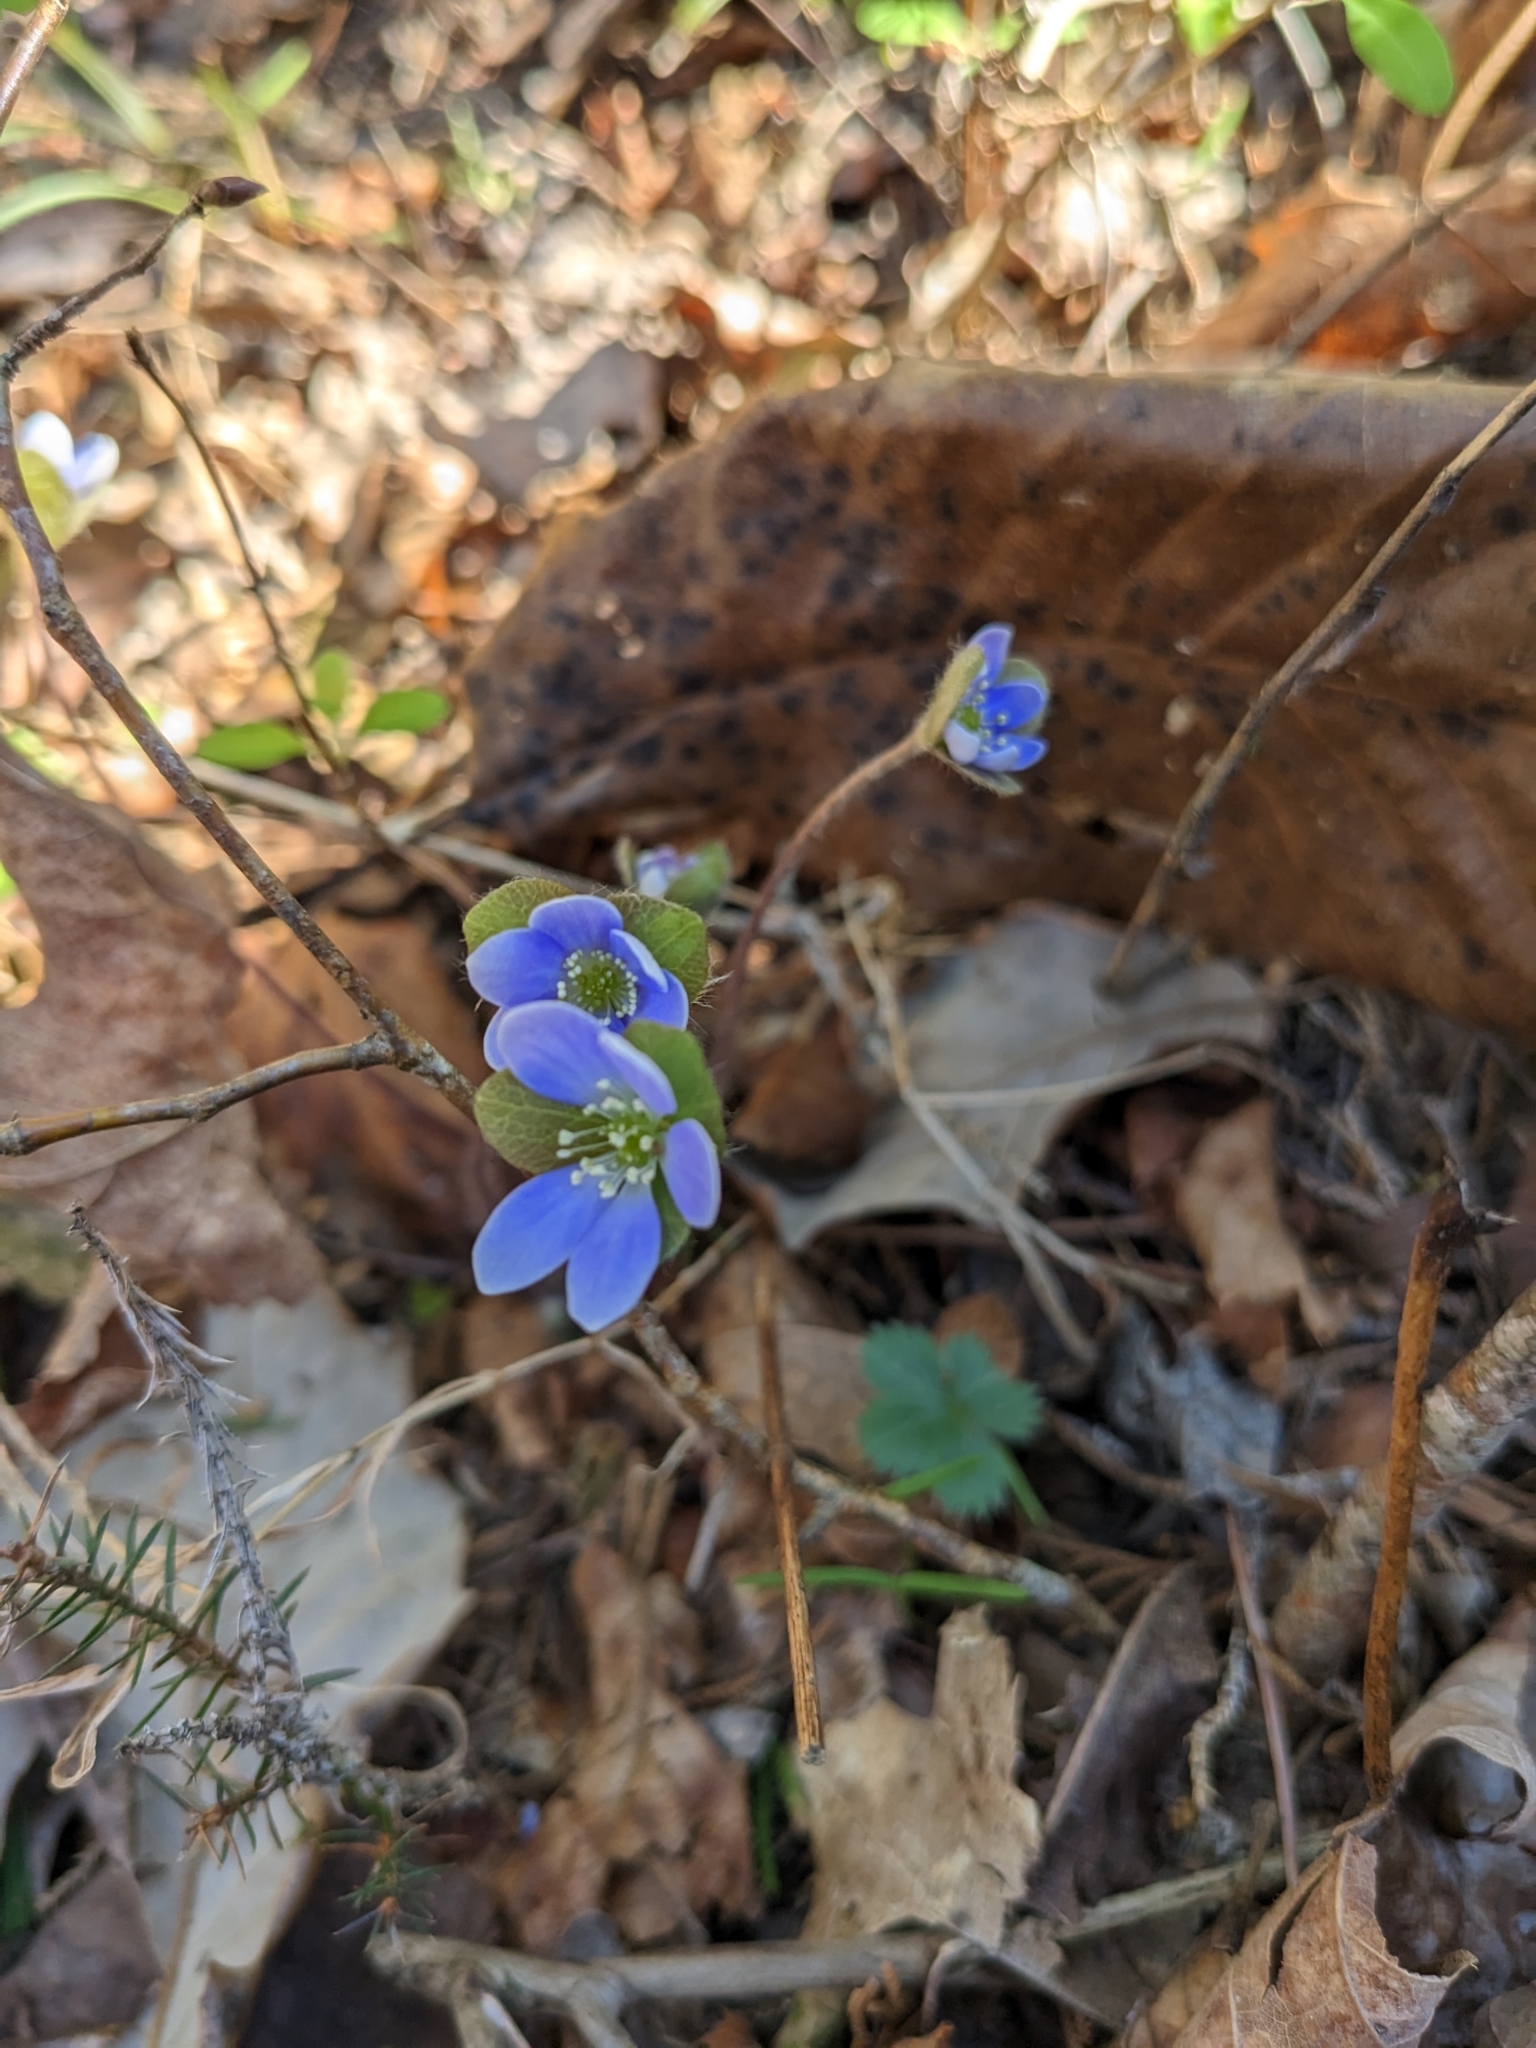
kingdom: Plantae
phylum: Tracheophyta
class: Magnoliopsida
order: Ranunculales
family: Ranunculaceae
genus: Hepatica
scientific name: Hepatica americana
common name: American hepatica
